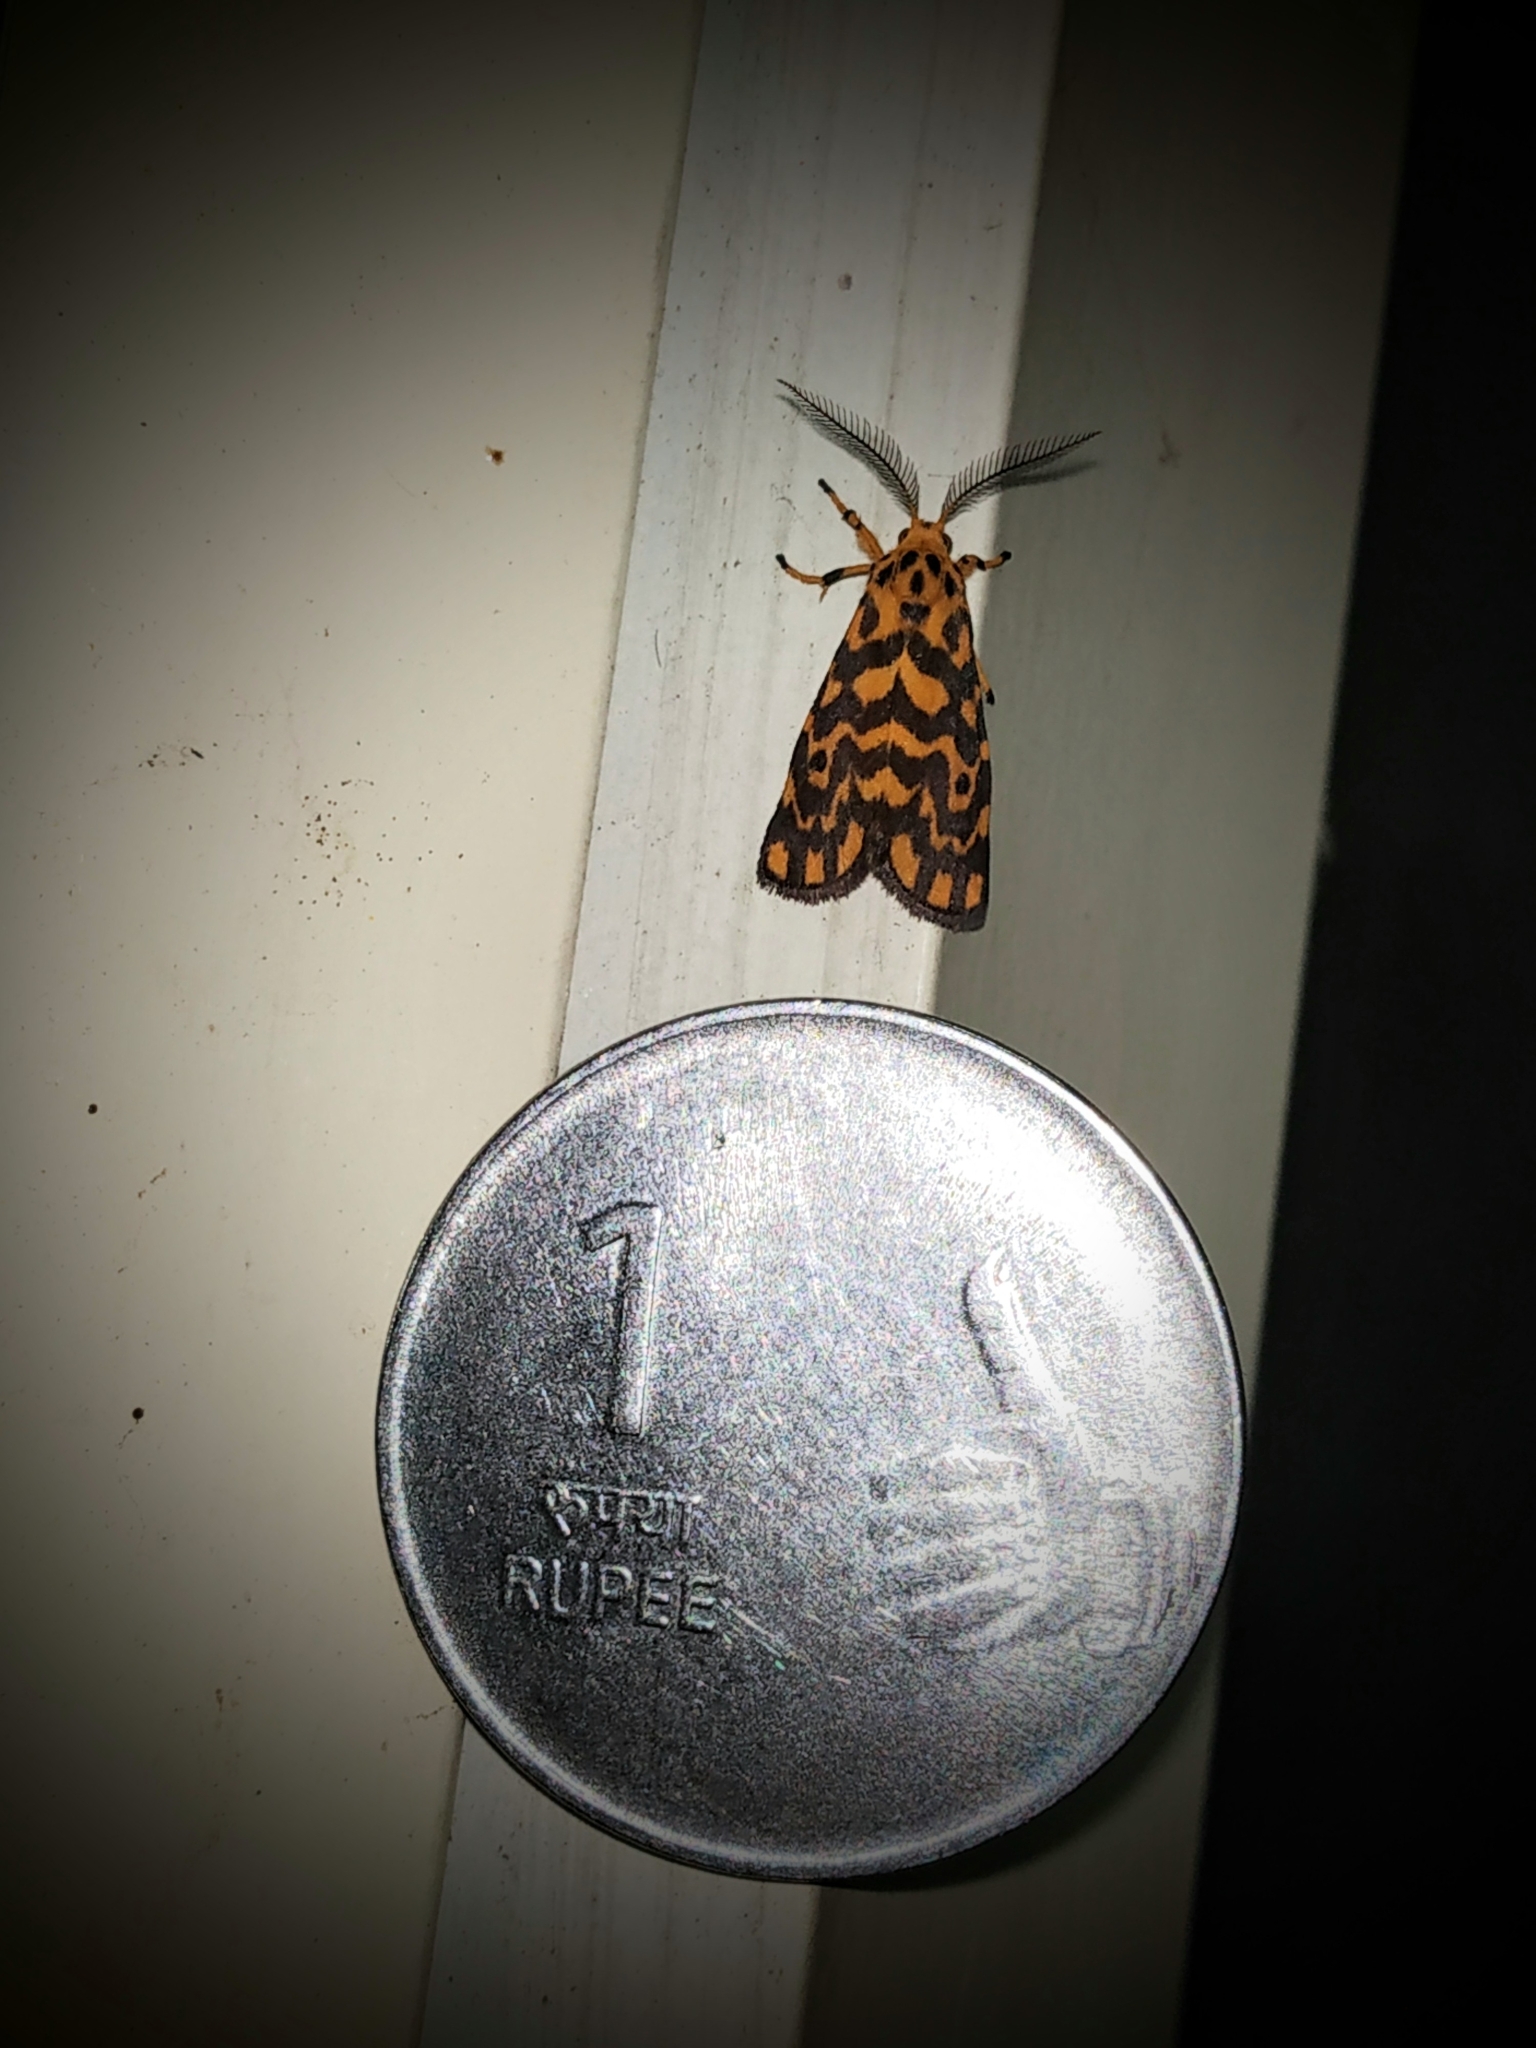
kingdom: Animalia
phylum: Arthropoda
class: Insecta
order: Lepidoptera
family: Erebidae
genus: Nepita
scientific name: Nepita conferta
